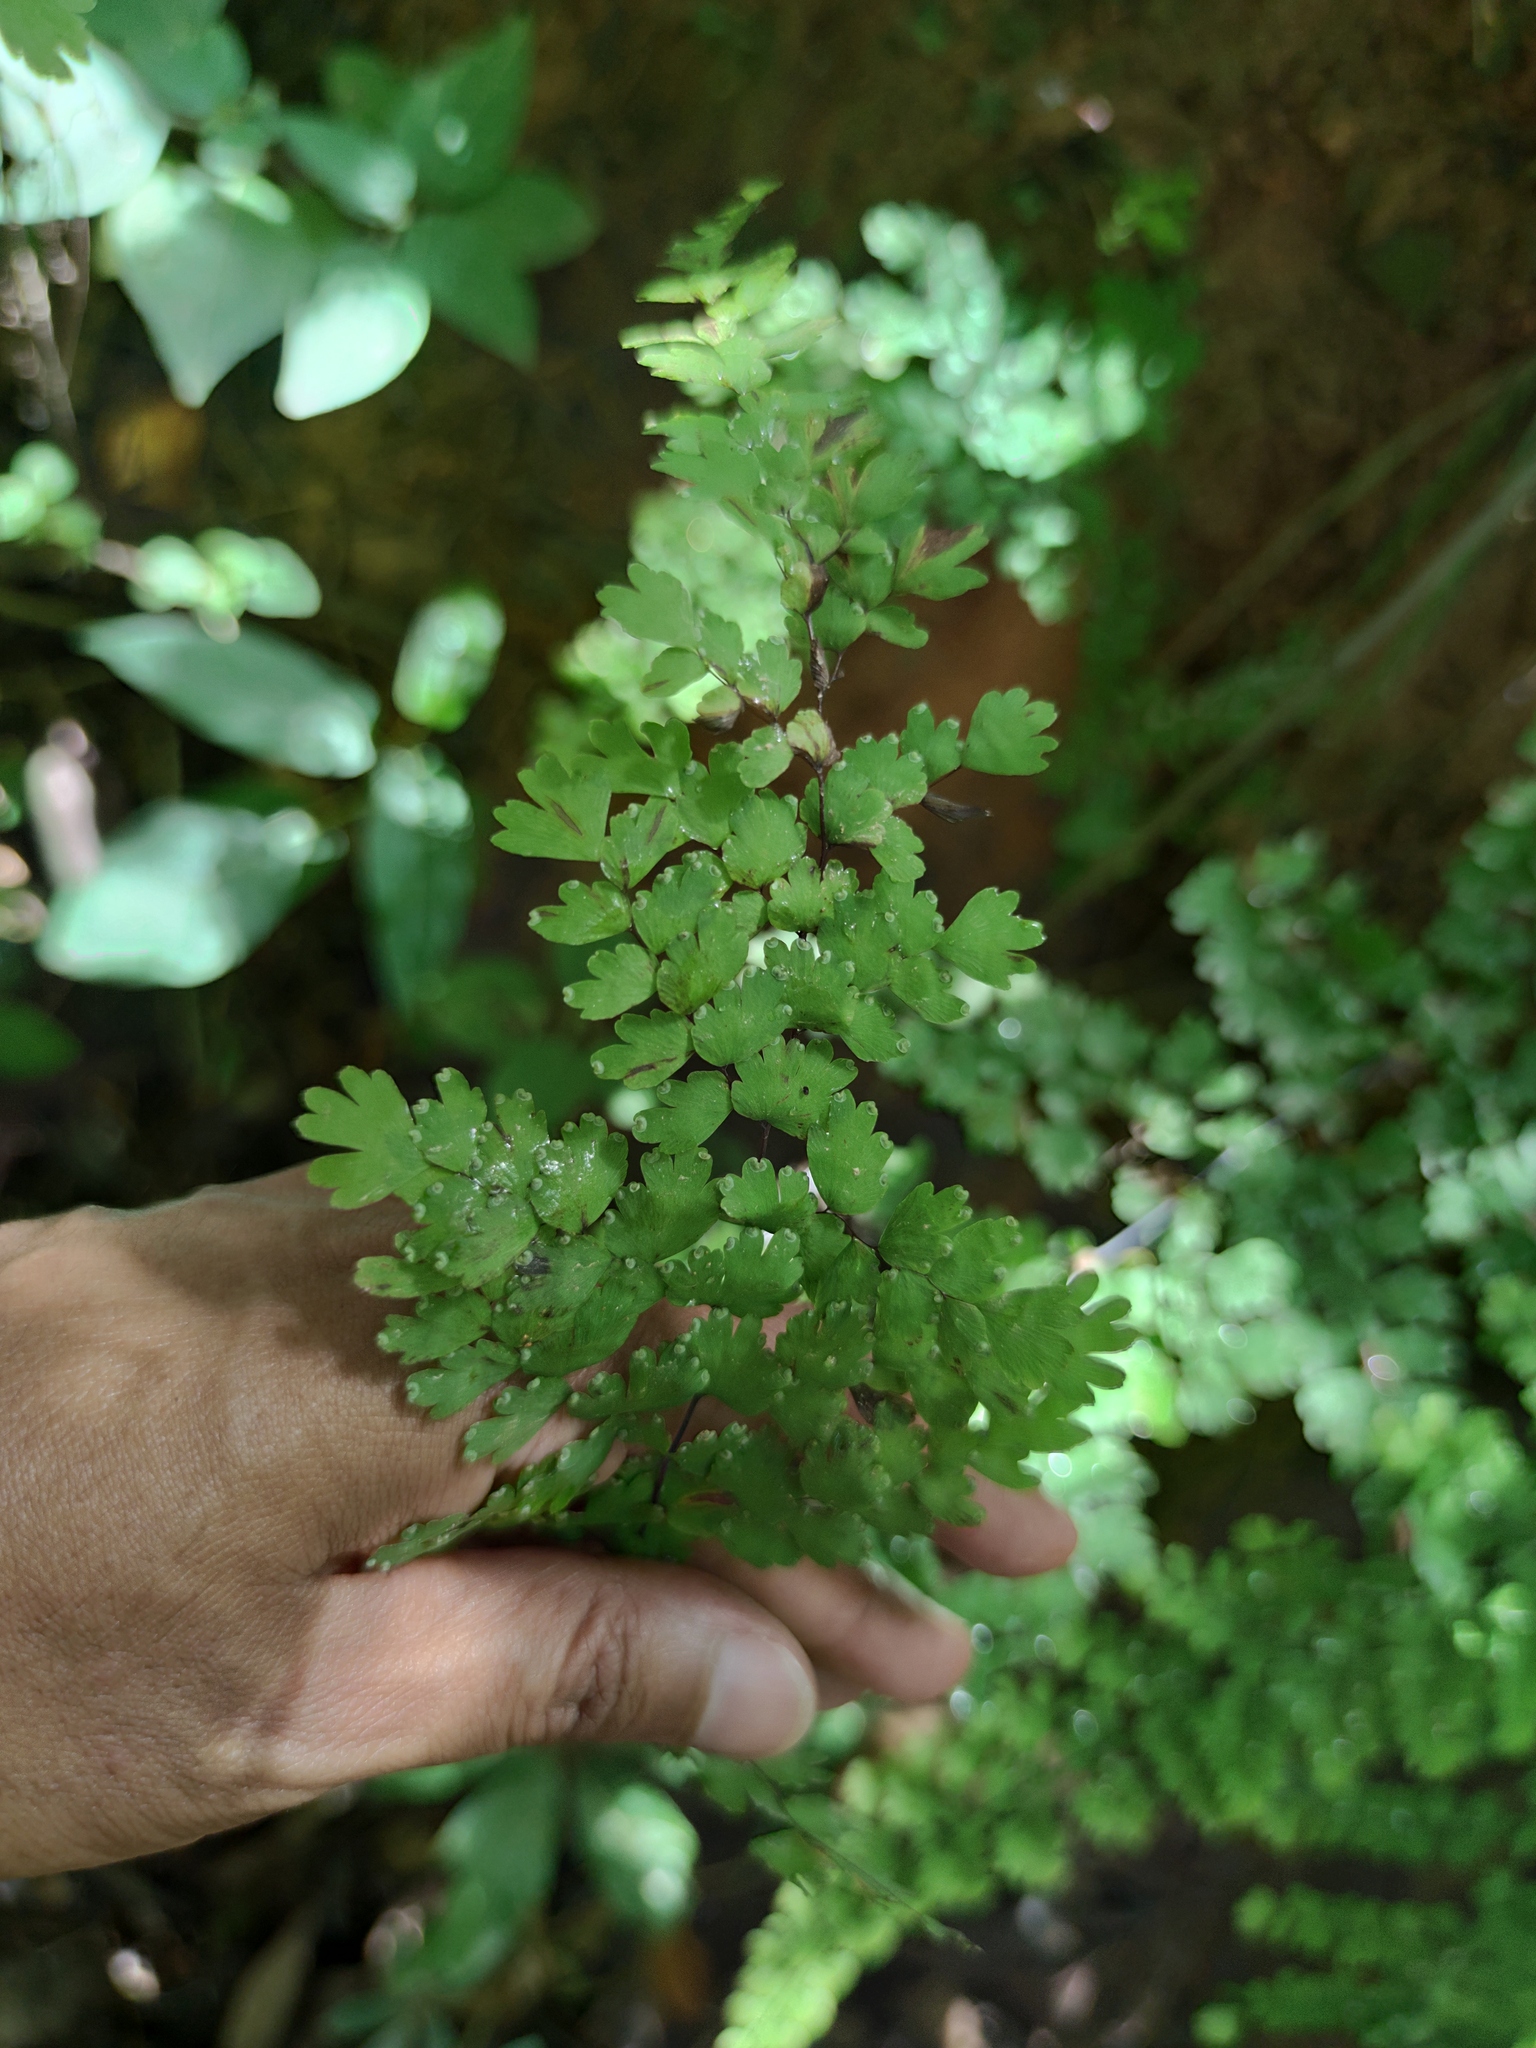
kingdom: Plantae
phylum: Tracheophyta
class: Polypodiopsida
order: Polypodiales
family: Pteridaceae
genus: Adiantum
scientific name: Adiantum concinnum
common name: Brittle maidenhair fern
